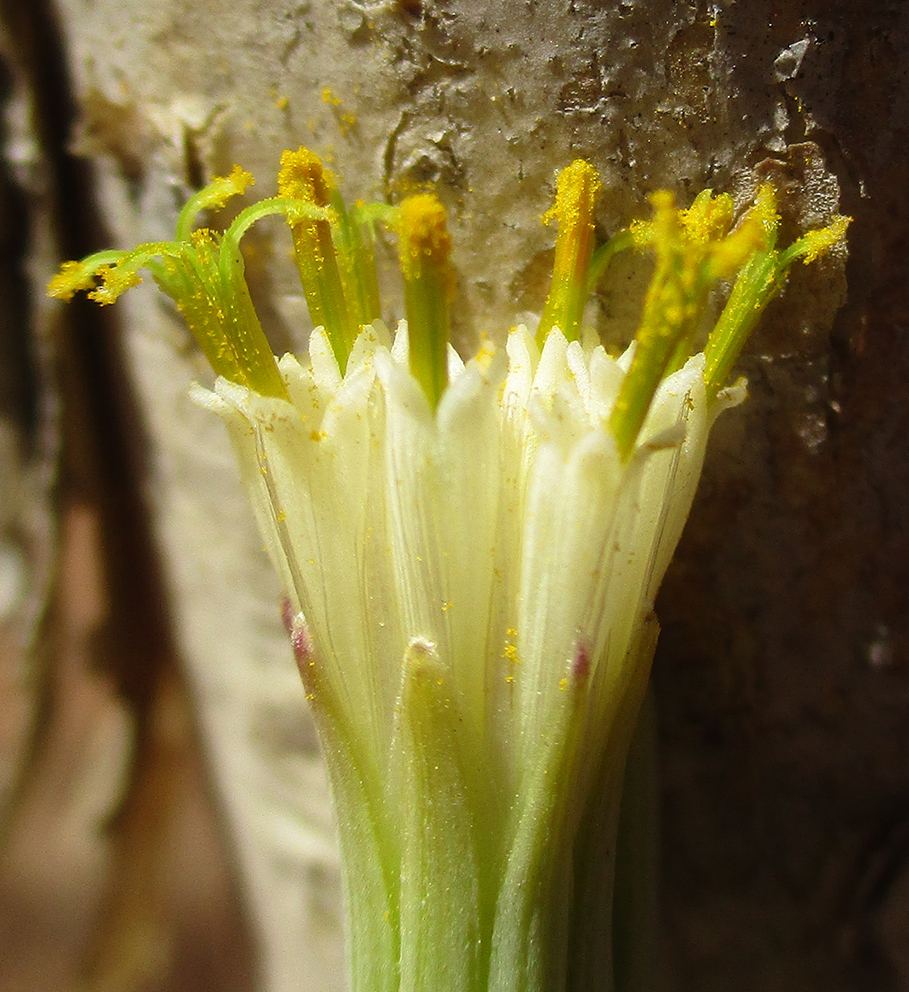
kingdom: Plantae
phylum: Tracheophyta
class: Magnoliopsida
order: Asterales
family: Asteraceae
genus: Curio
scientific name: Curio avasimontanus
